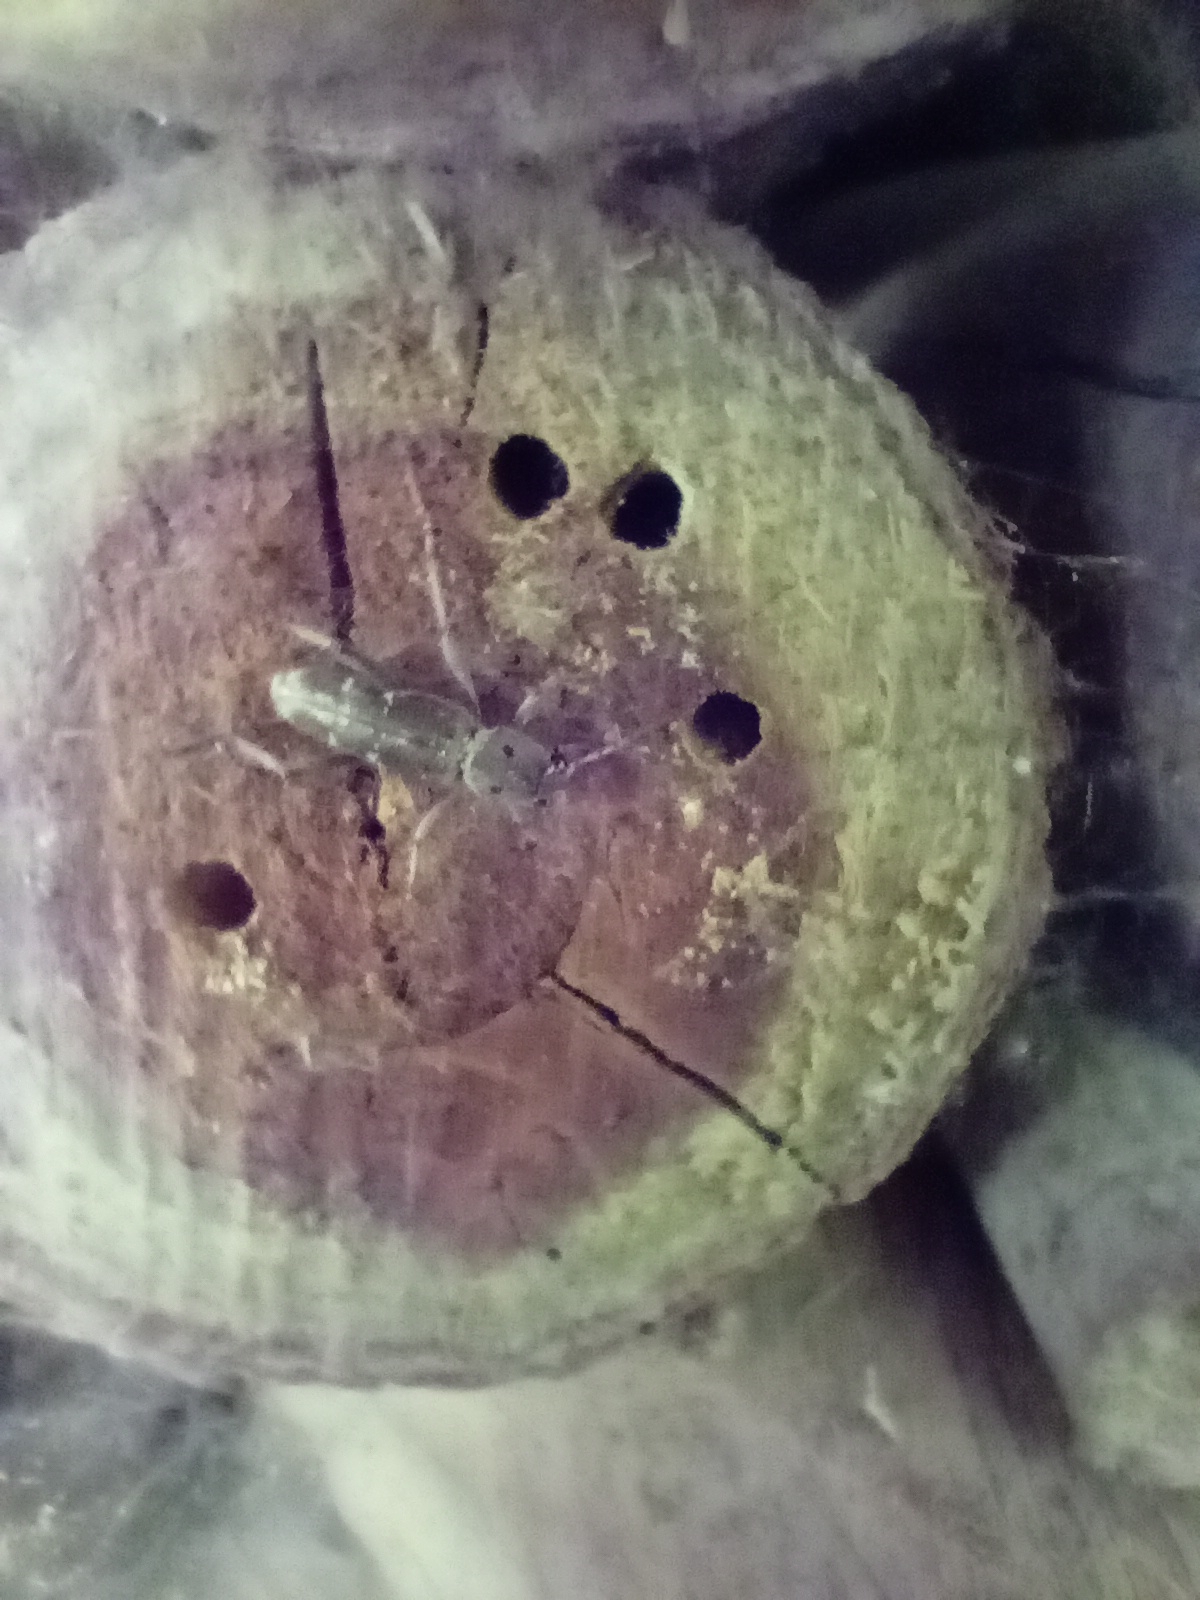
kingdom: Animalia
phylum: Arthropoda
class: Insecta
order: Coleoptera
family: Cerambycidae
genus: Xylotrechus
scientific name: Xylotrechus smei
